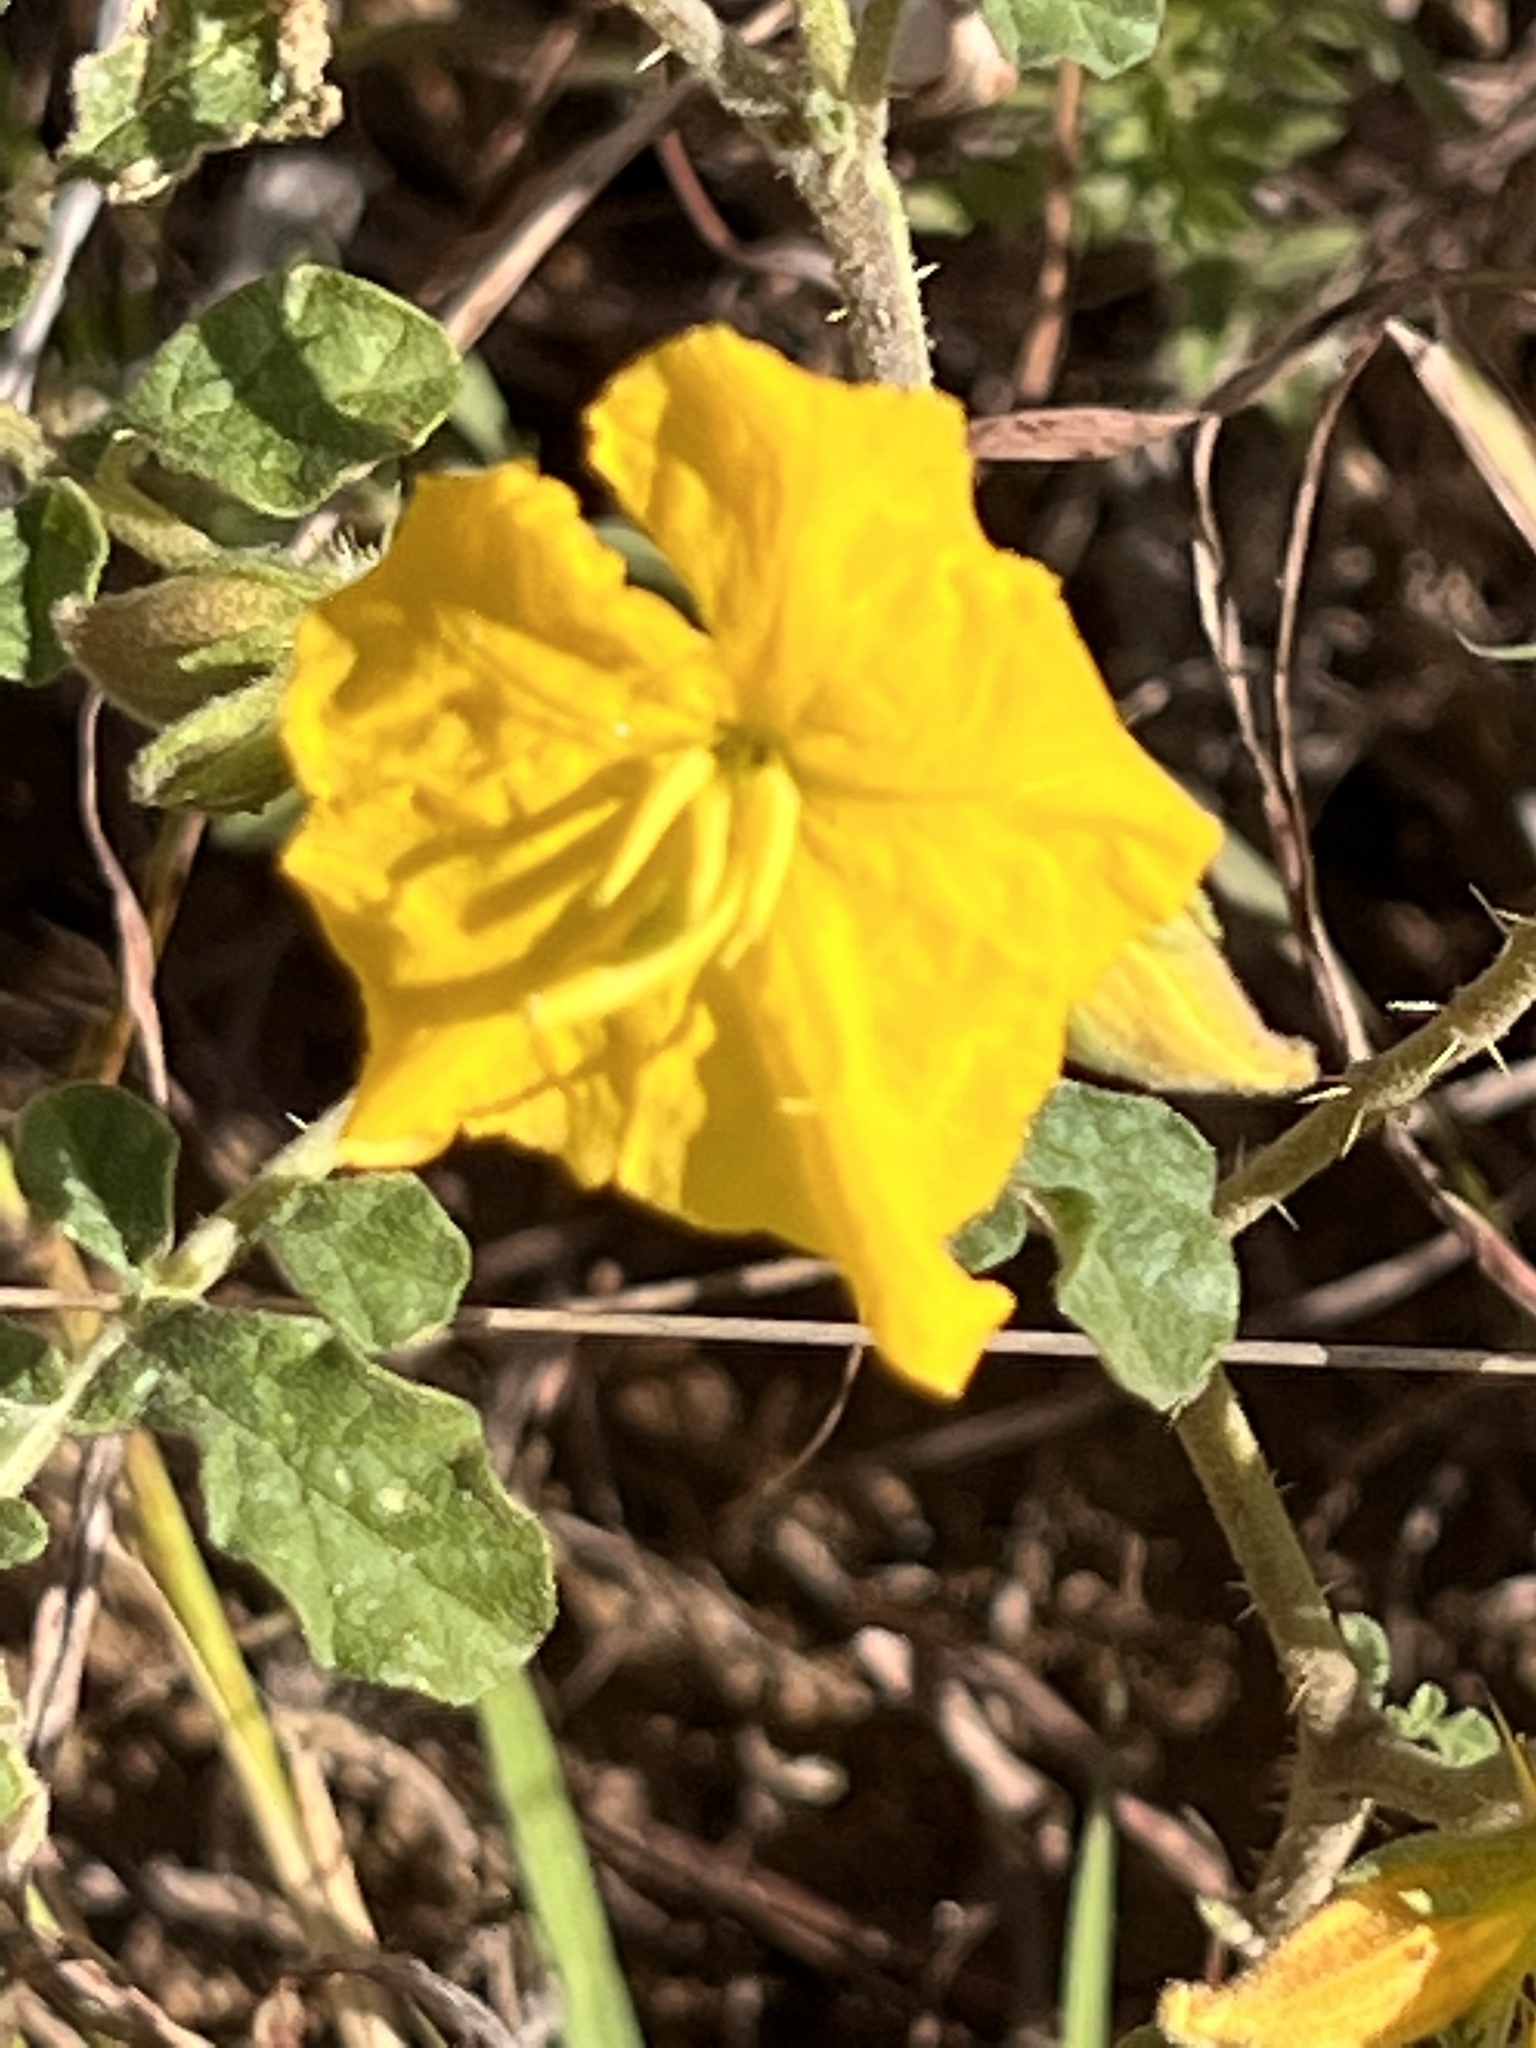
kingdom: Plantae
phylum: Tracheophyta
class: Magnoliopsida
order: Solanales
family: Solanaceae
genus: Solanum
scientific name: Solanum angustifolium
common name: Buffalobur nightshade
